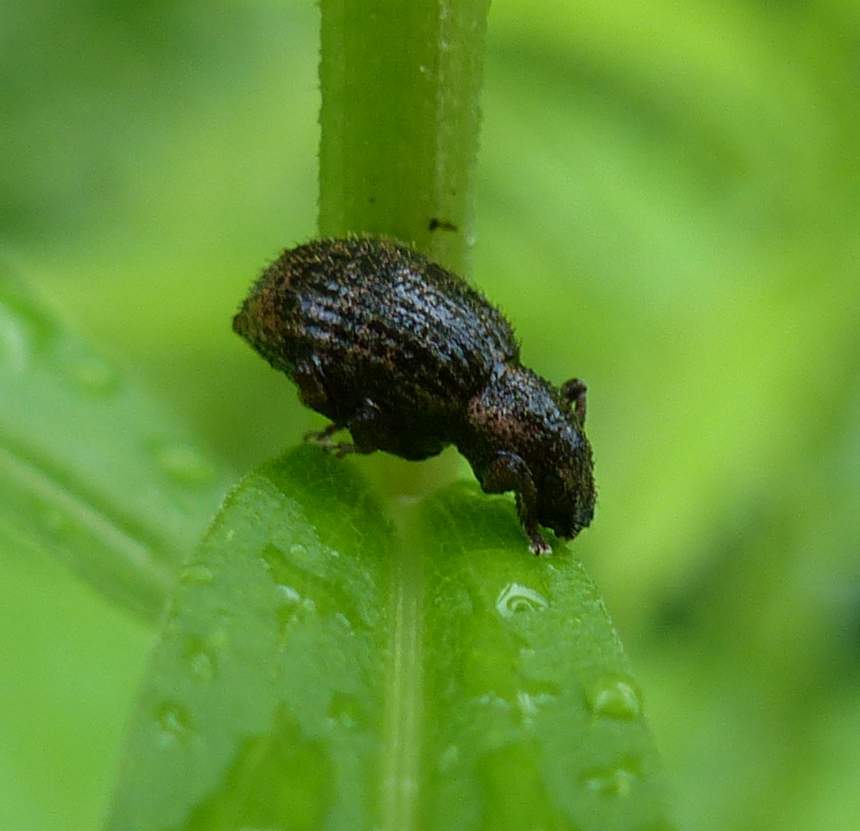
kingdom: Animalia
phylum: Arthropoda
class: Insecta
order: Coleoptera
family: Curculionidae
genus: Sciaphilus
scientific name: Sciaphilus asperatus
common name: Weevil
